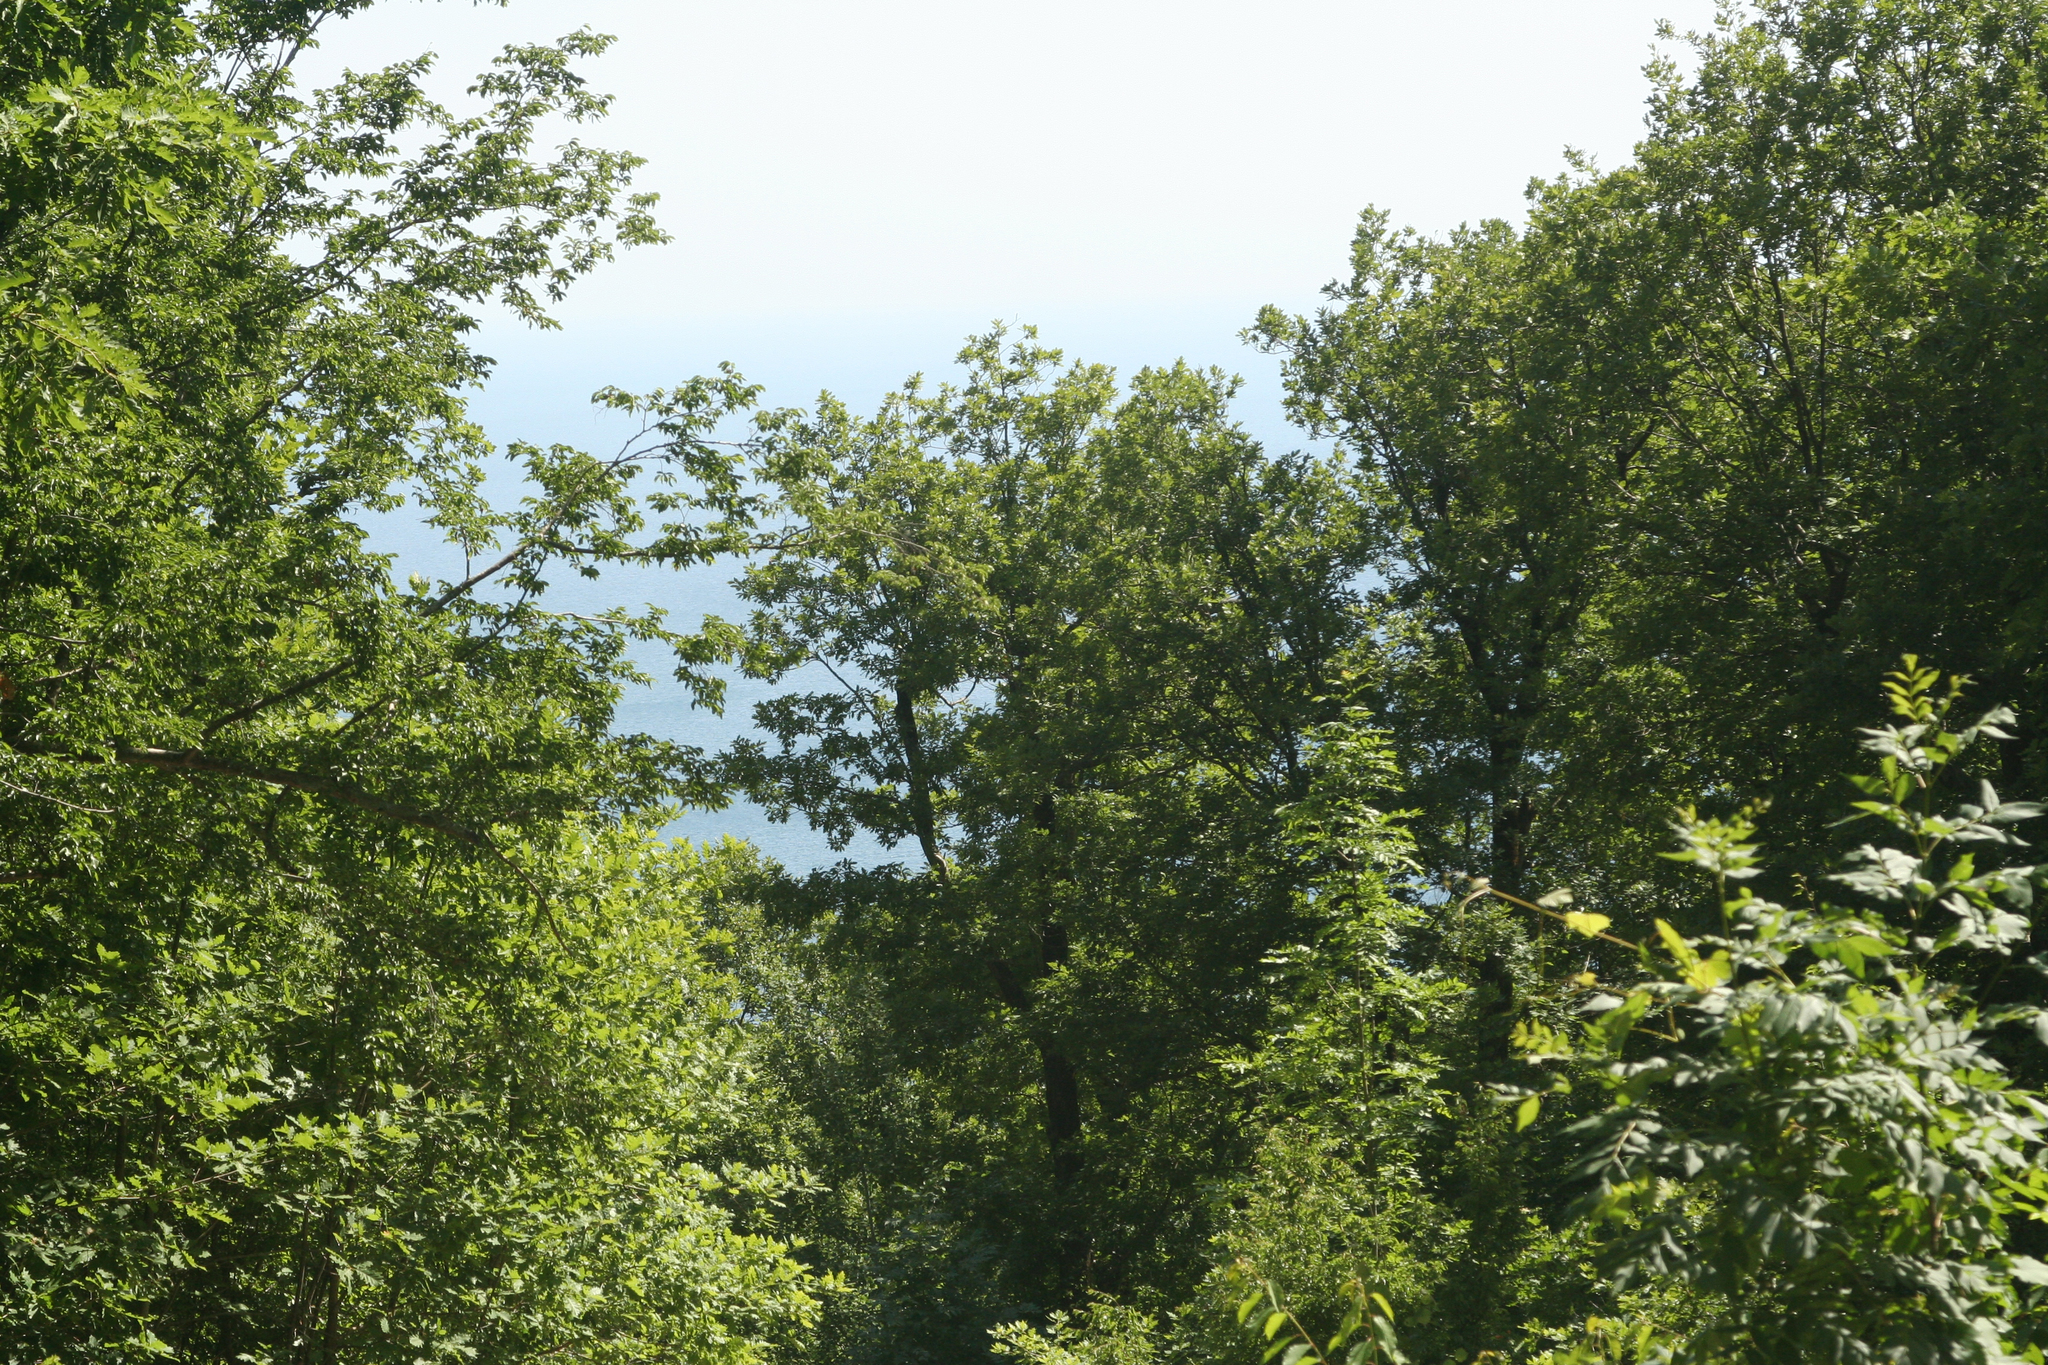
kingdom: Plantae
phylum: Tracheophyta
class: Magnoliopsida
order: Fagales
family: Fagaceae
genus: Quercus
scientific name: Quercus pubescens
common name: Downy oak
